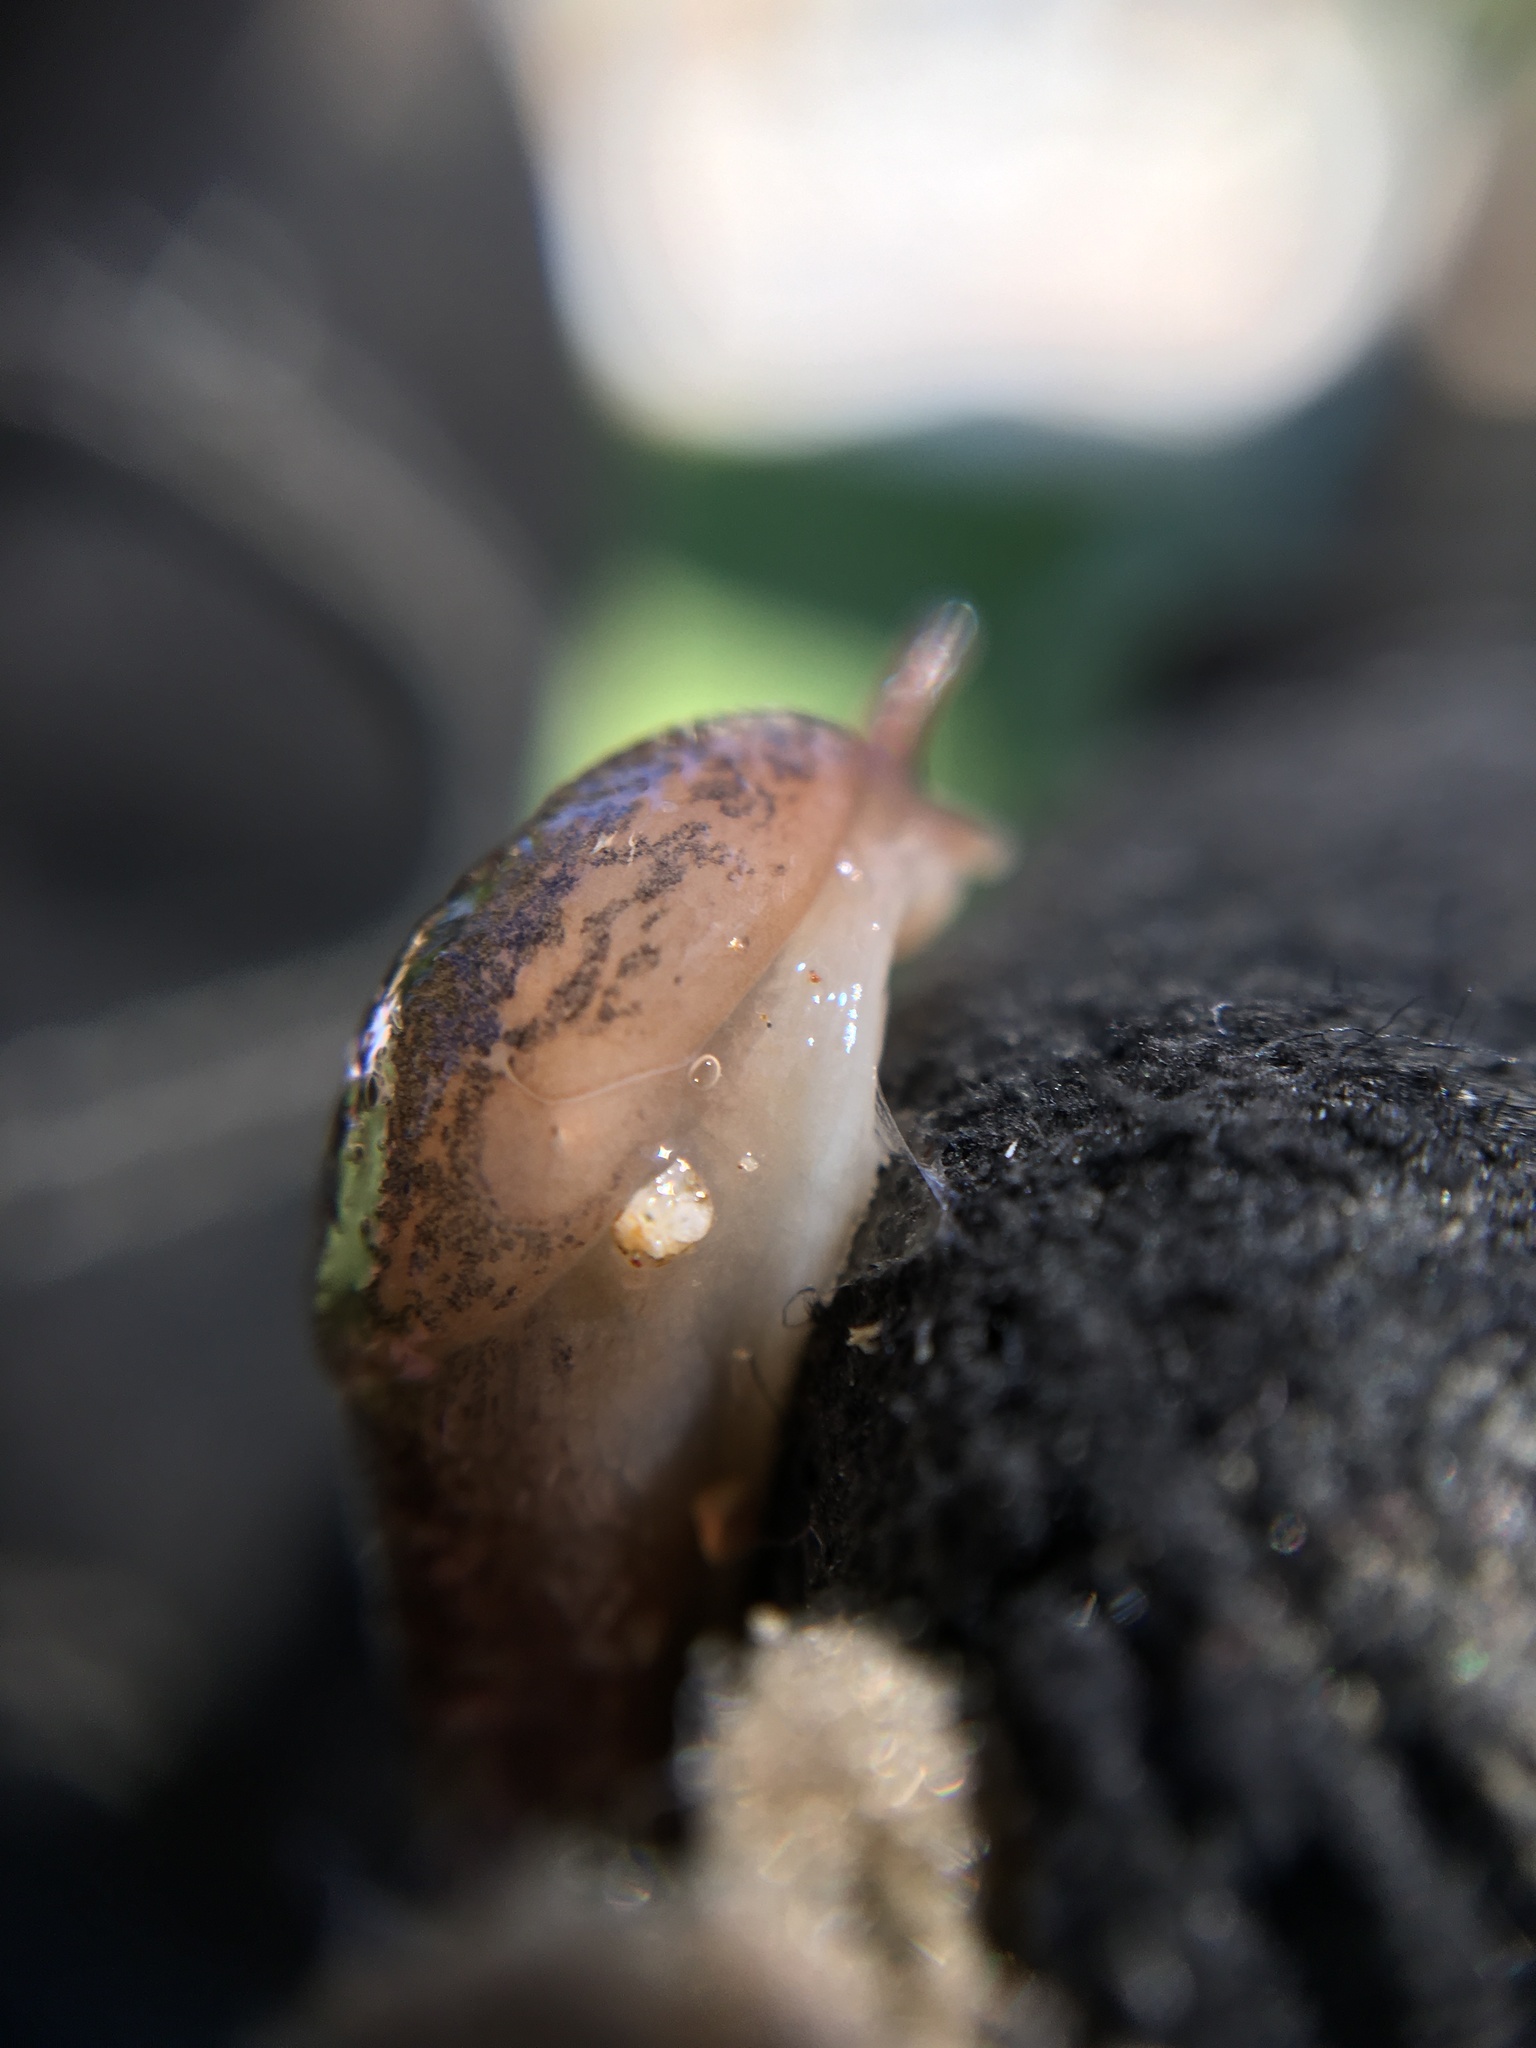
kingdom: Animalia
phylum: Mollusca
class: Gastropoda
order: Stylommatophora
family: Limacidae
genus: Ambigolimax
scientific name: Ambigolimax
